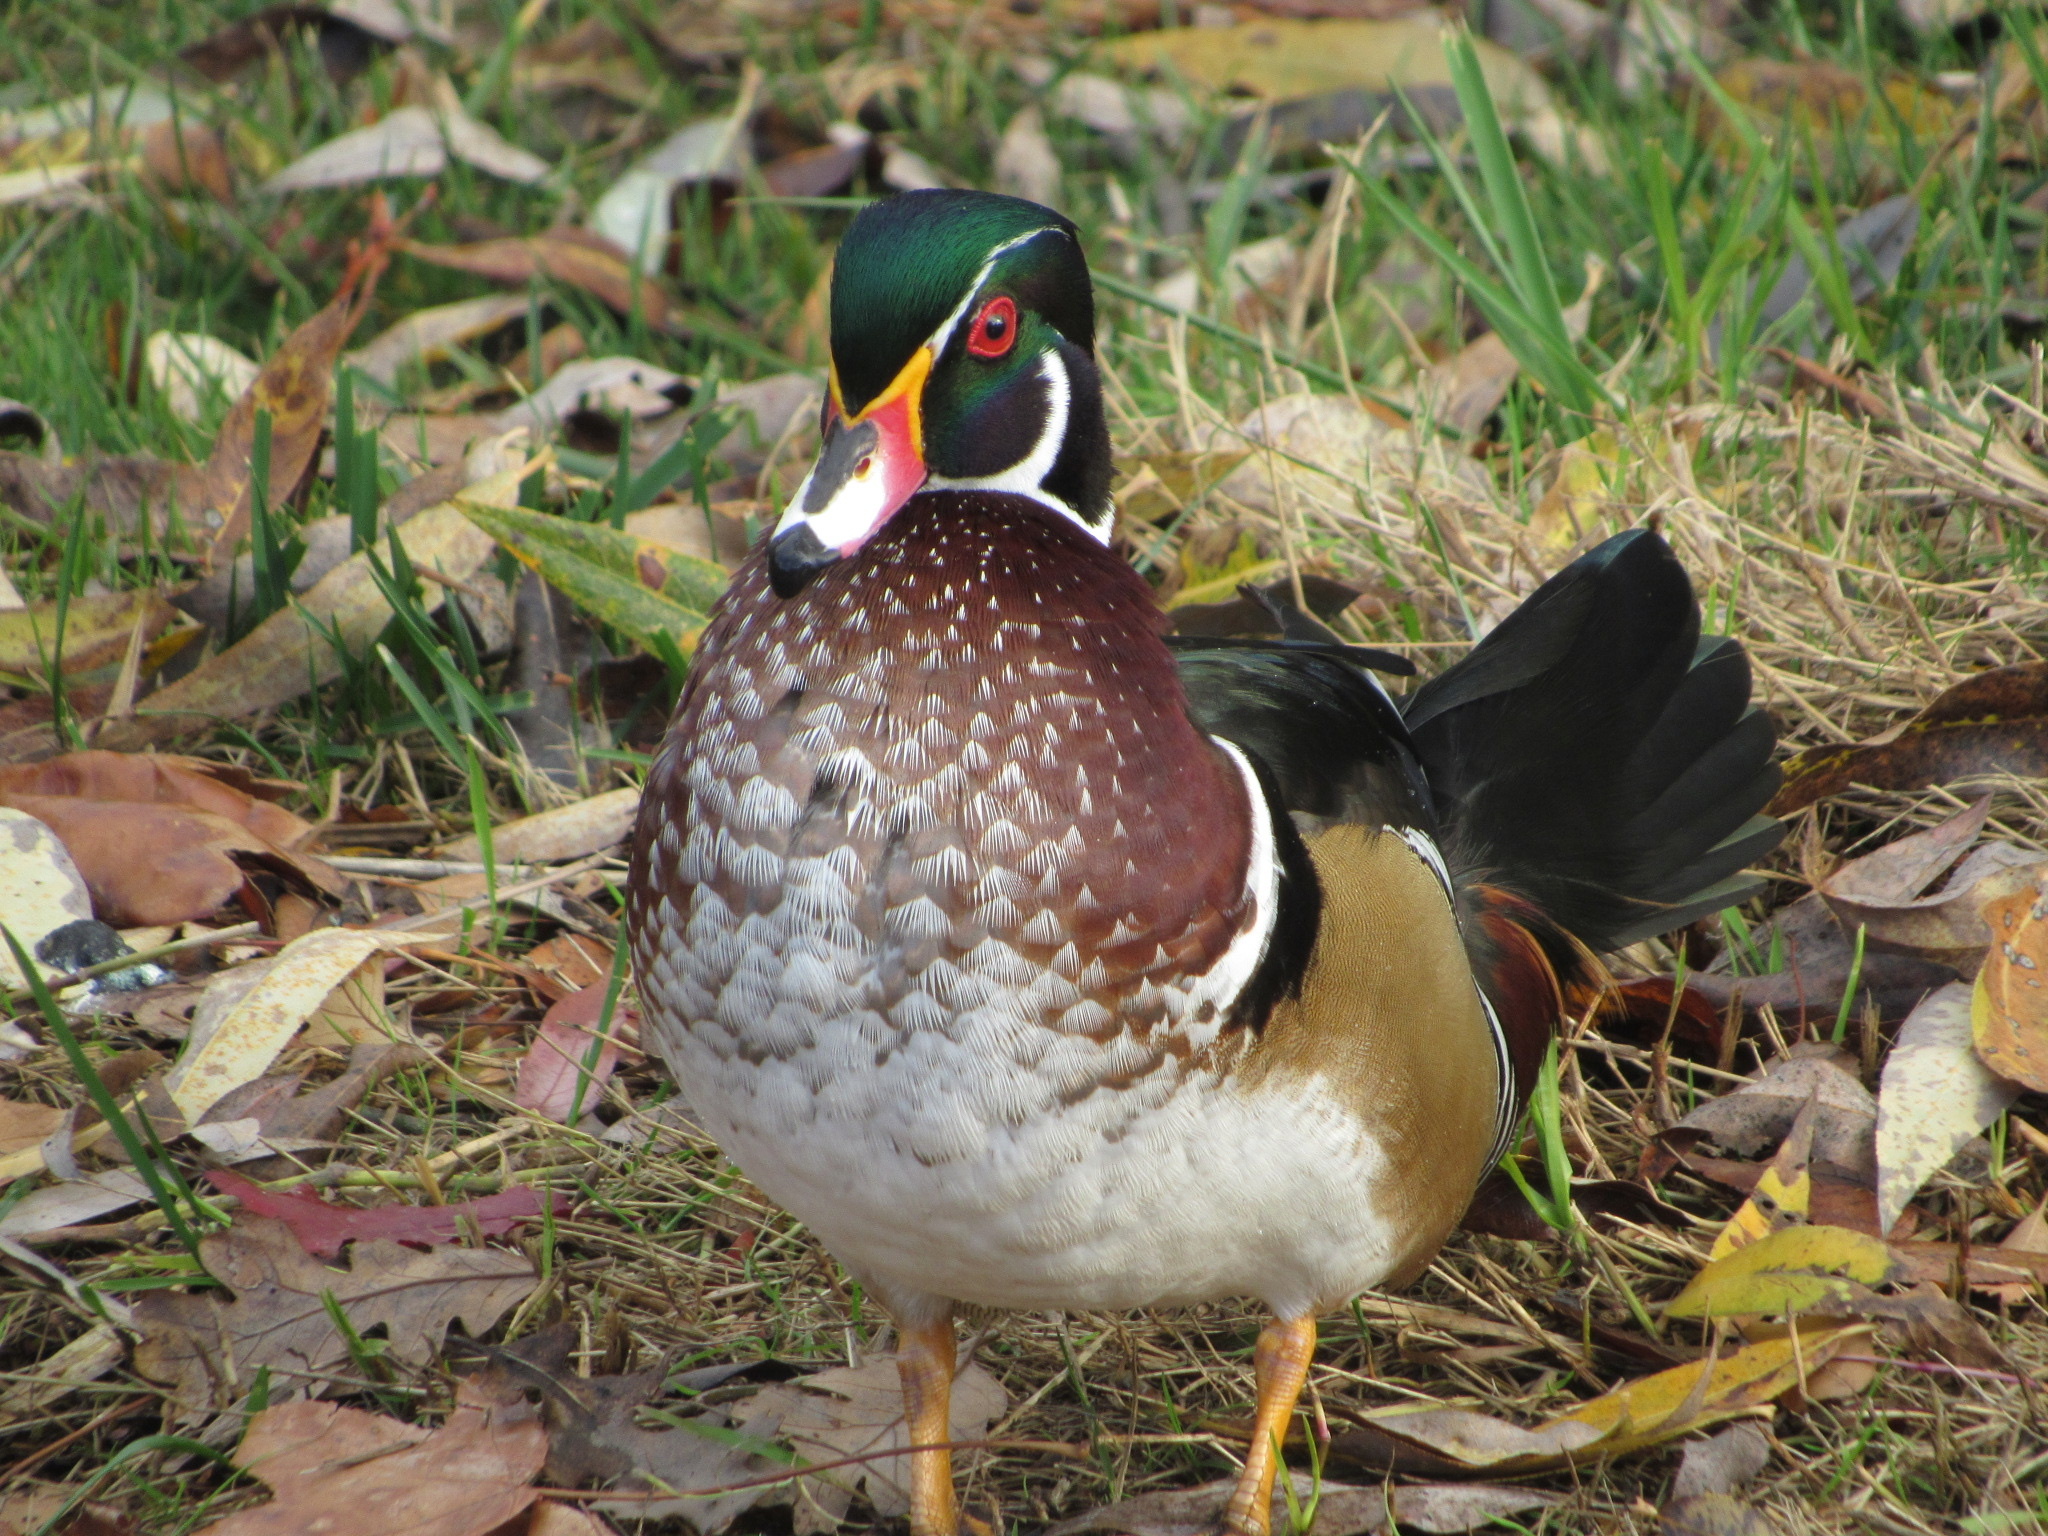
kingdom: Animalia
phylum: Chordata
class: Aves
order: Anseriformes
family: Anatidae
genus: Aix
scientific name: Aix sponsa
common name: Wood duck
